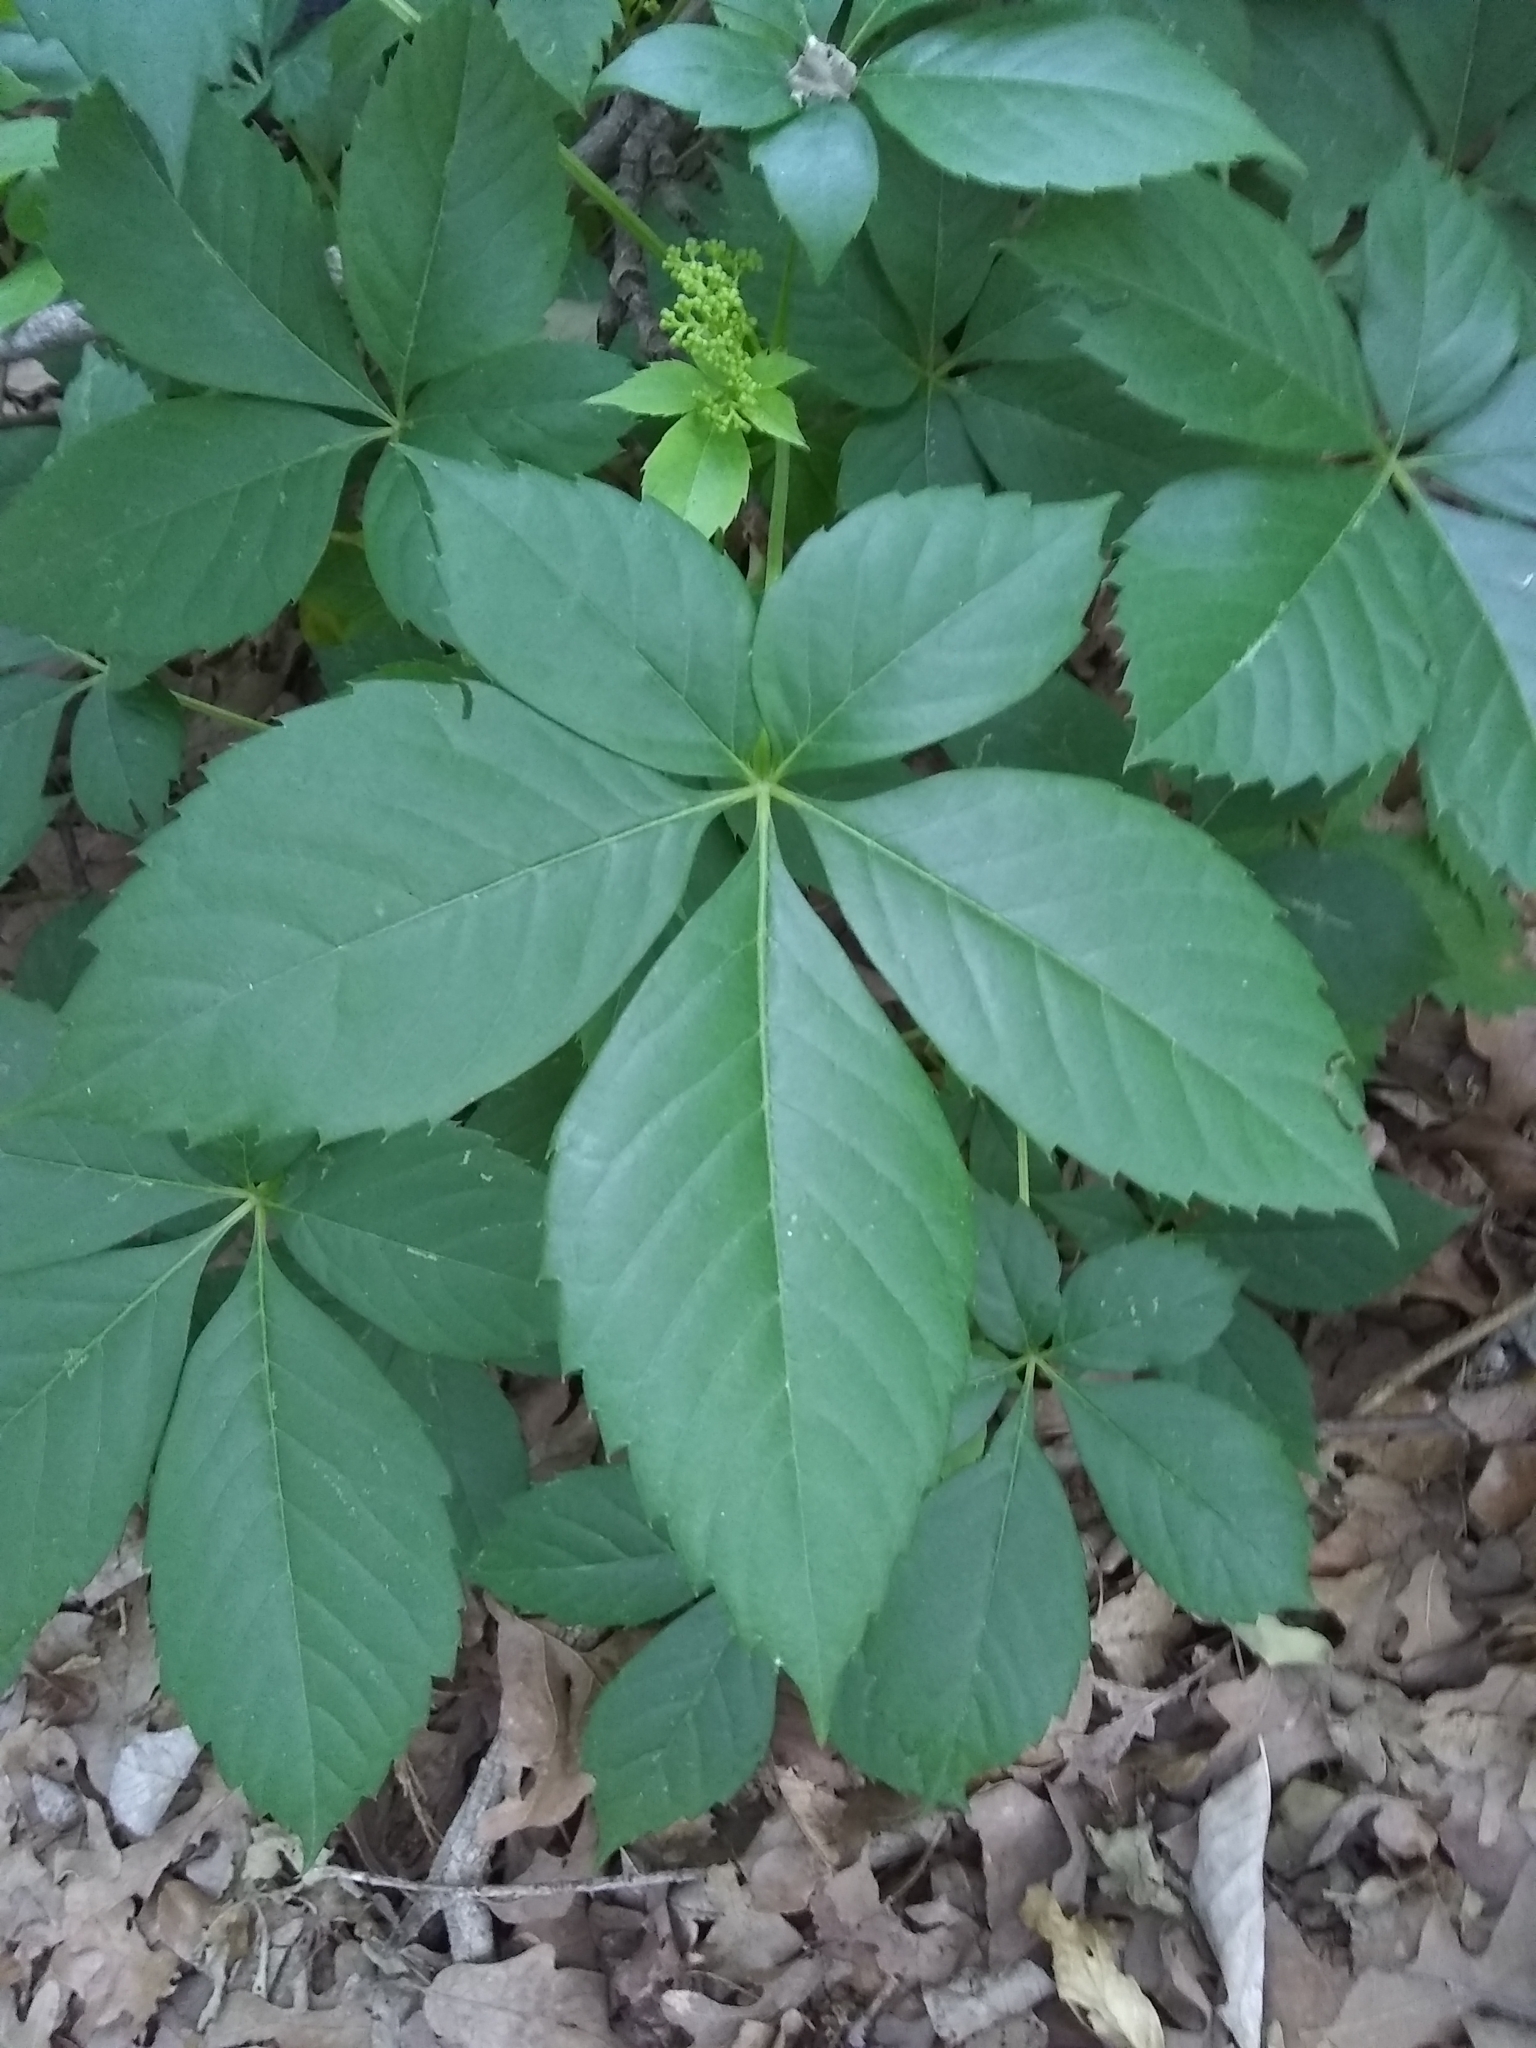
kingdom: Plantae
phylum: Tracheophyta
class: Magnoliopsida
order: Vitales
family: Vitaceae
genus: Parthenocissus
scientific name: Parthenocissus quinquefolia
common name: Virginia-creeper
